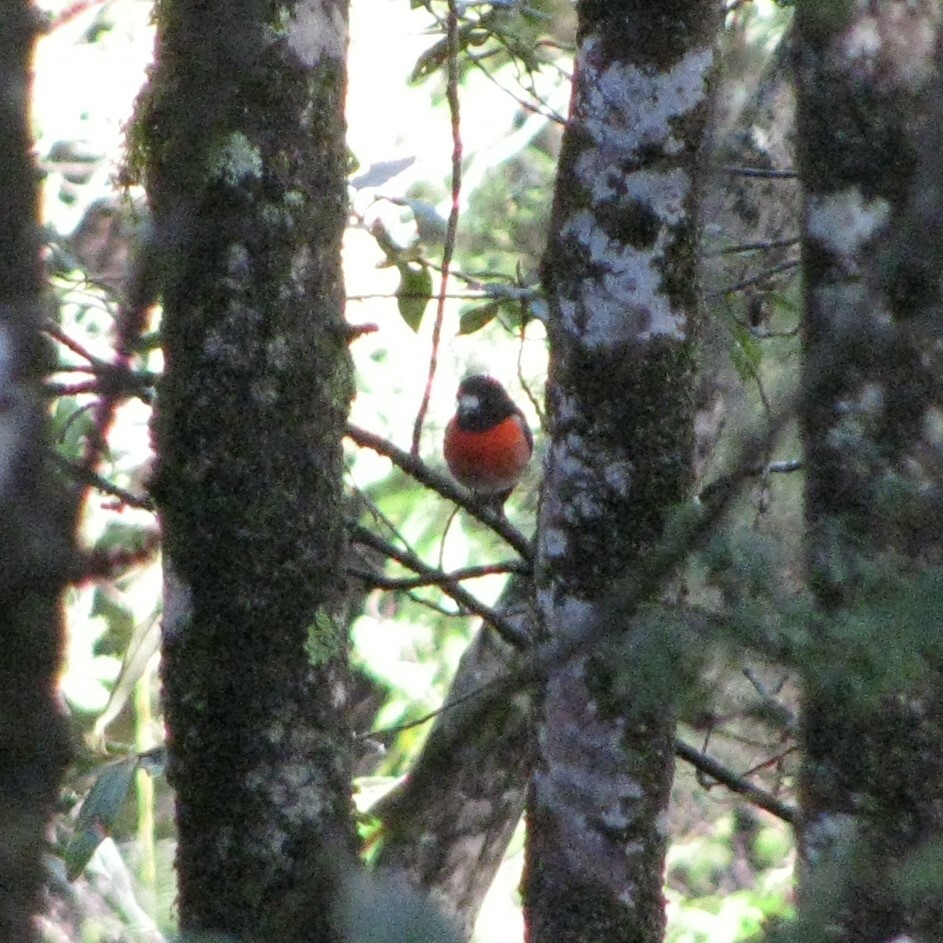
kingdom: Animalia
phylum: Chordata
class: Aves
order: Passeriformes
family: Petroicidae
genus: Petroica
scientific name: Petroica boodang
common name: Scarlet robin
